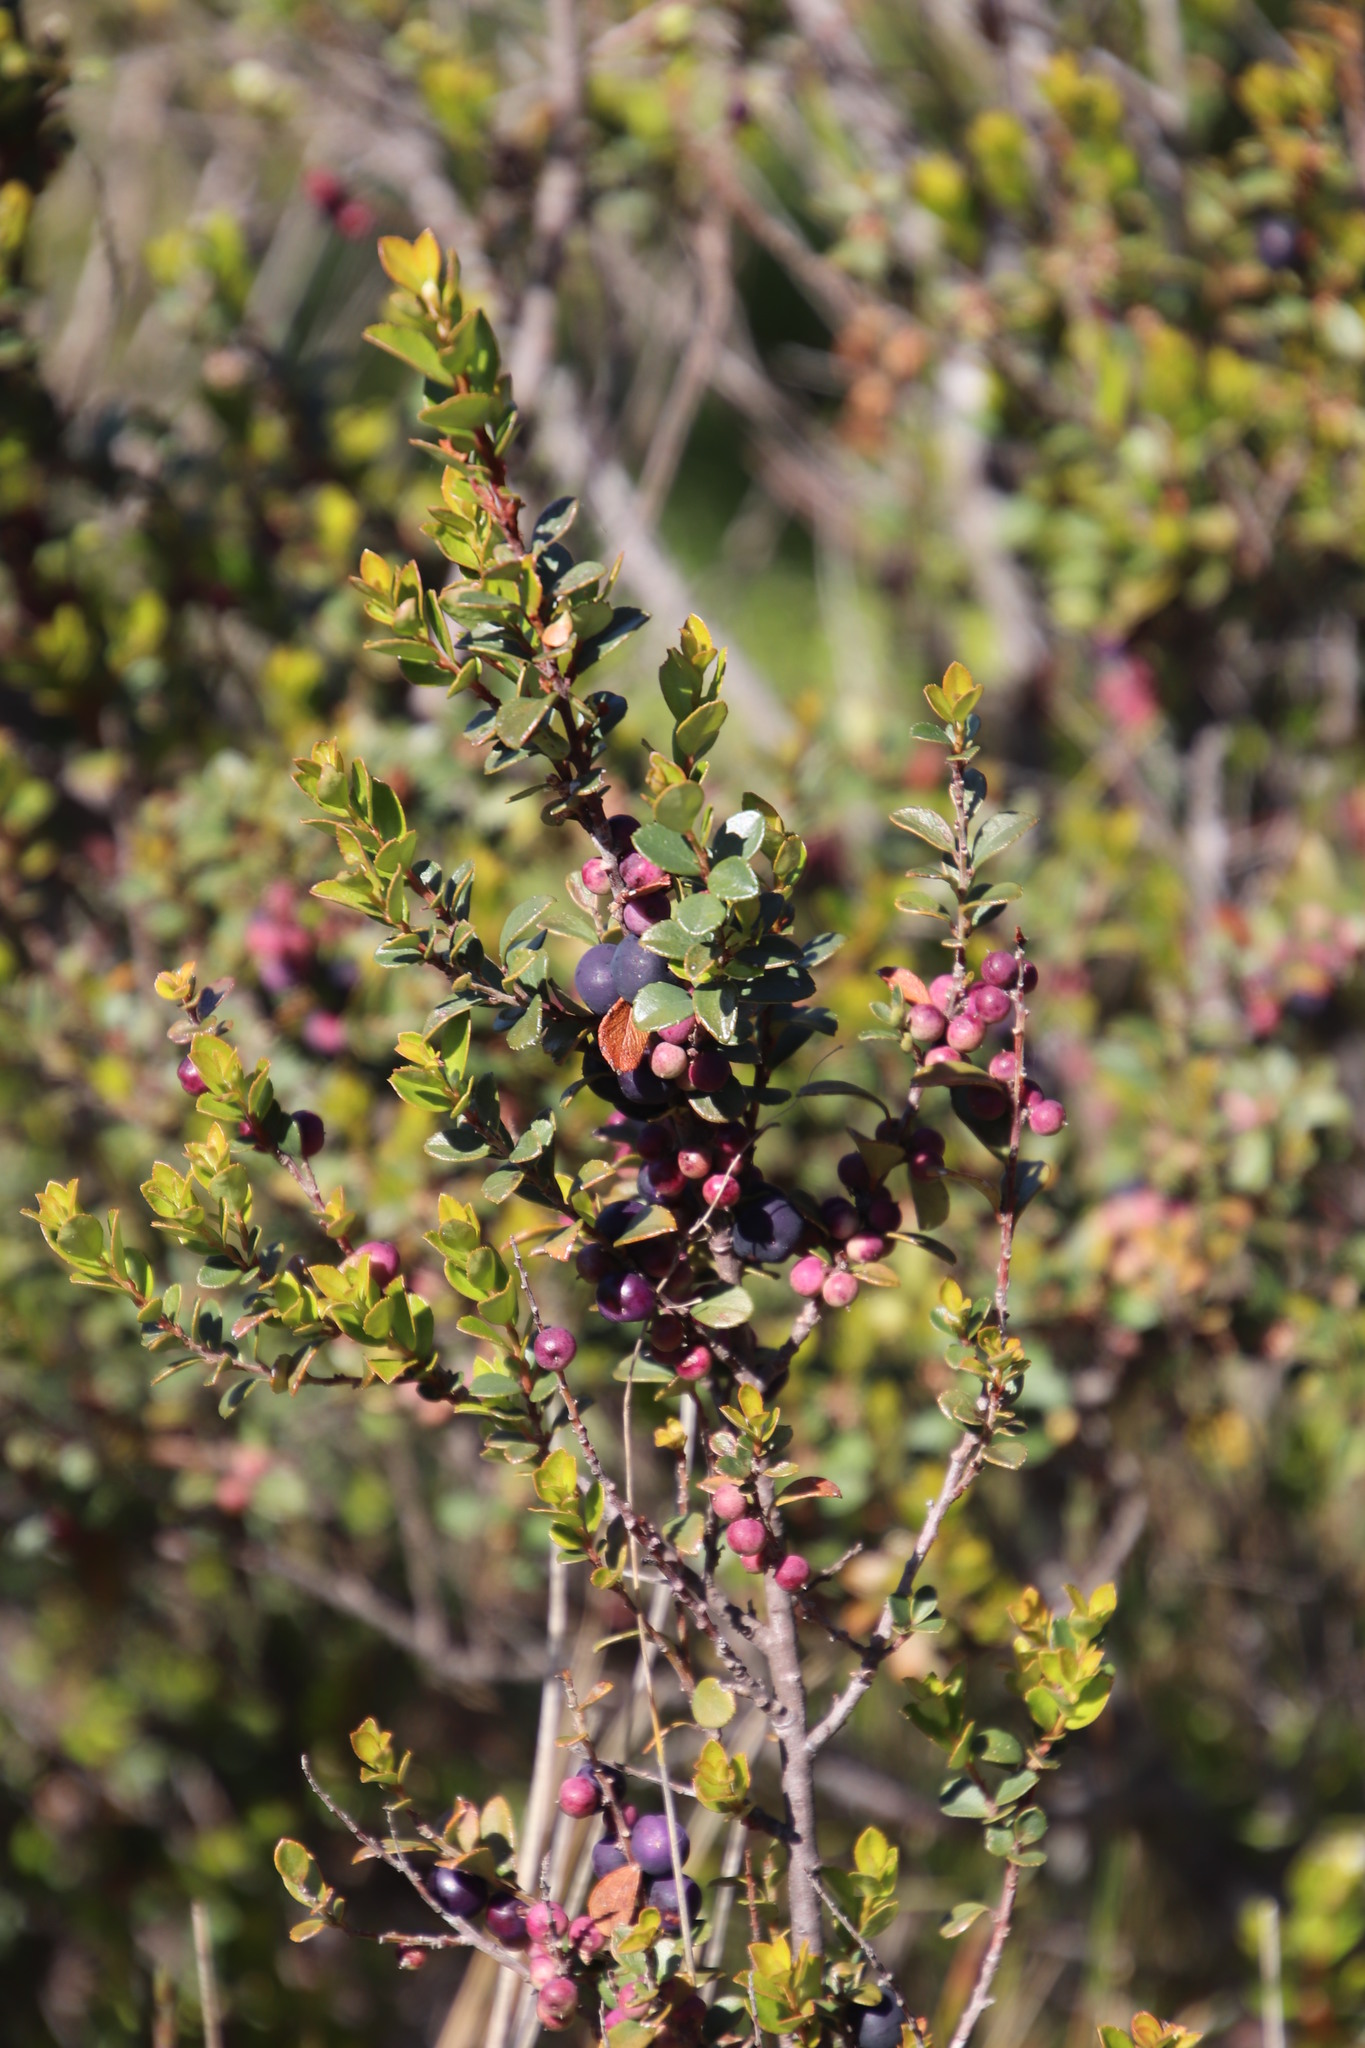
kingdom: Plantae
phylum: Tracheophyta
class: Magnoliopsida
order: Ericales
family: Primulaceae
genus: Myrsine
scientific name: Myrsine africana
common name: African-boxwood
